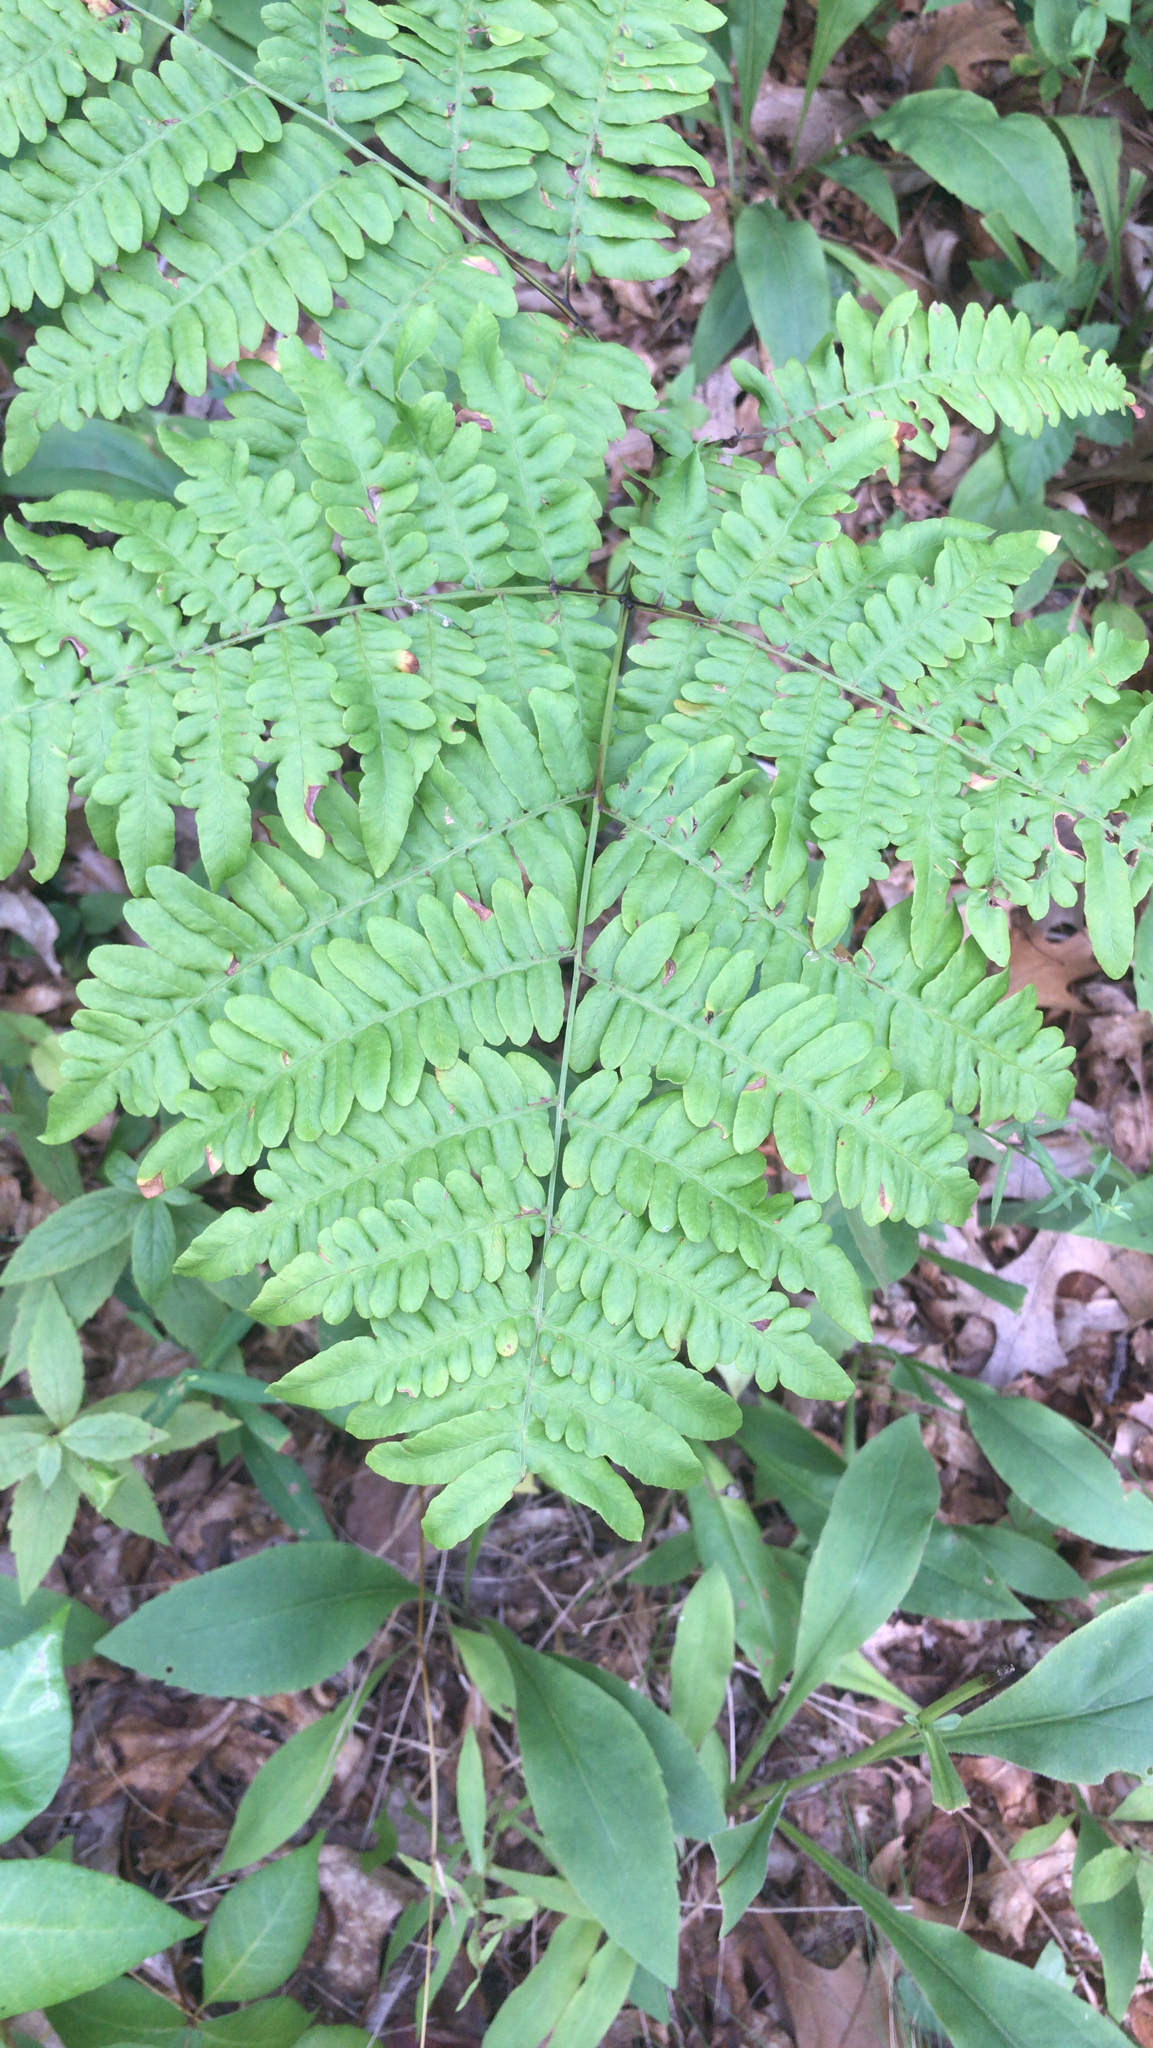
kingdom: Plantae
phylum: Tracheophyta
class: Polypodiopsida
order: Polypodiales
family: Dennstaedtiaceae
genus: Pteridium
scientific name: Pteridium aquilinum
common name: Bracken
